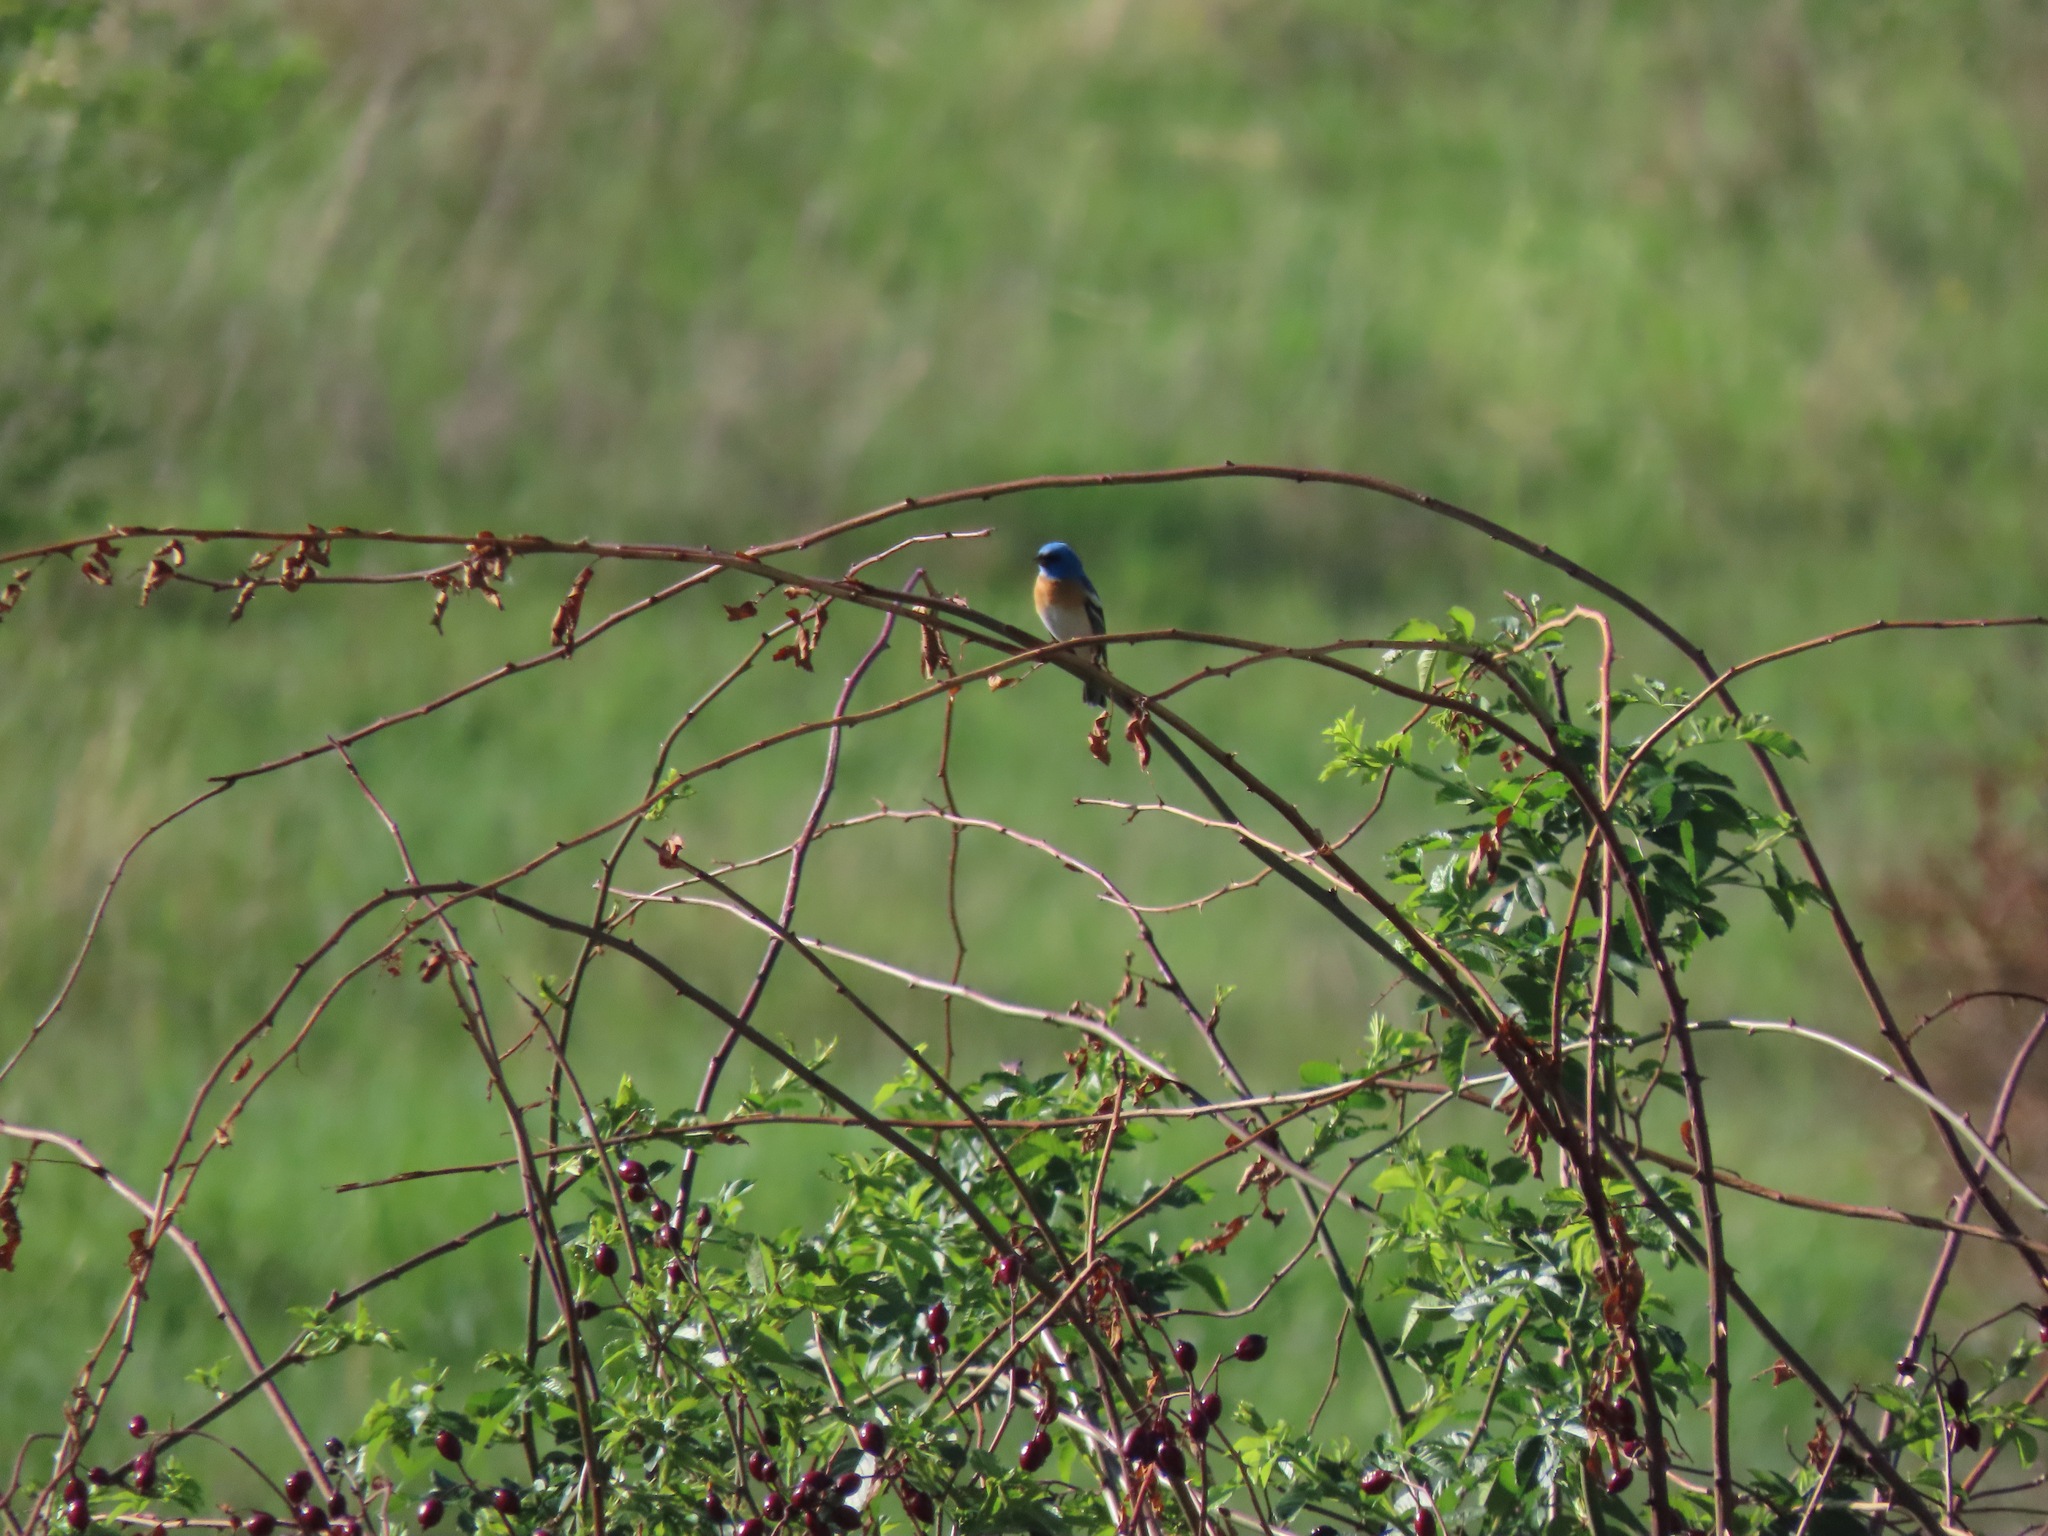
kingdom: Animalia
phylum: Chordata
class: Aves
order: Passeriformes
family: Cardinalidae
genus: Passerina
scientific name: Passerina amoena
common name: Lazuli bunting
